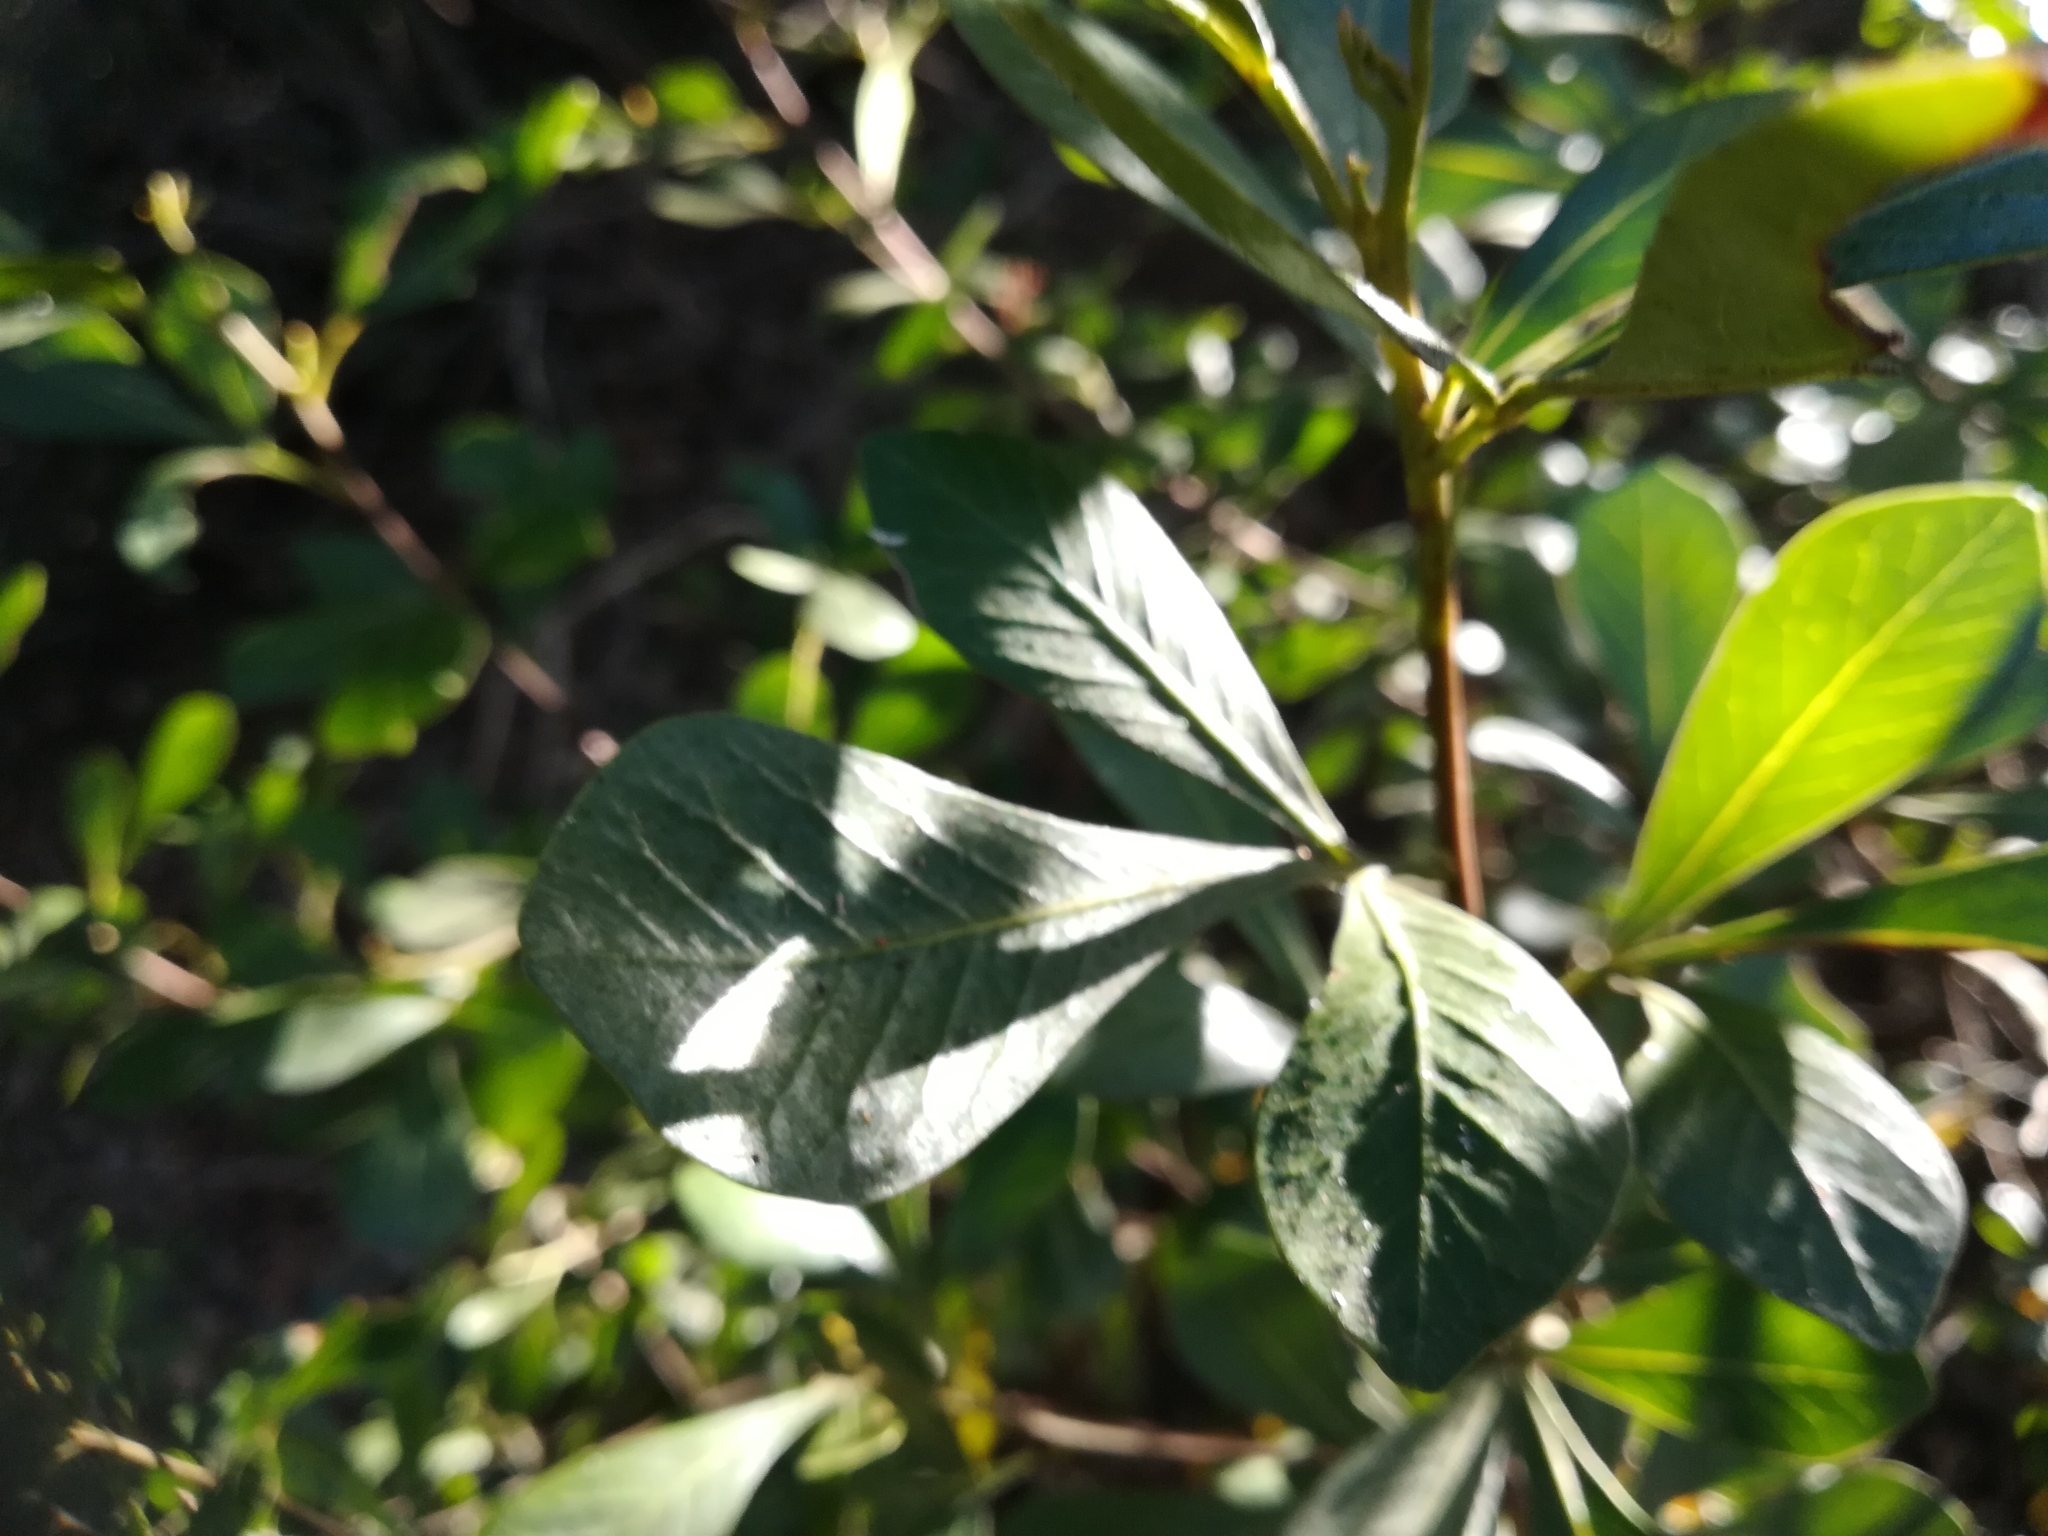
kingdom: Plantae
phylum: Tracheophyta
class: Magnoliopsida
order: Sapindales
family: Anacardiaceae
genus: Searsia
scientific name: Searsia lucida
